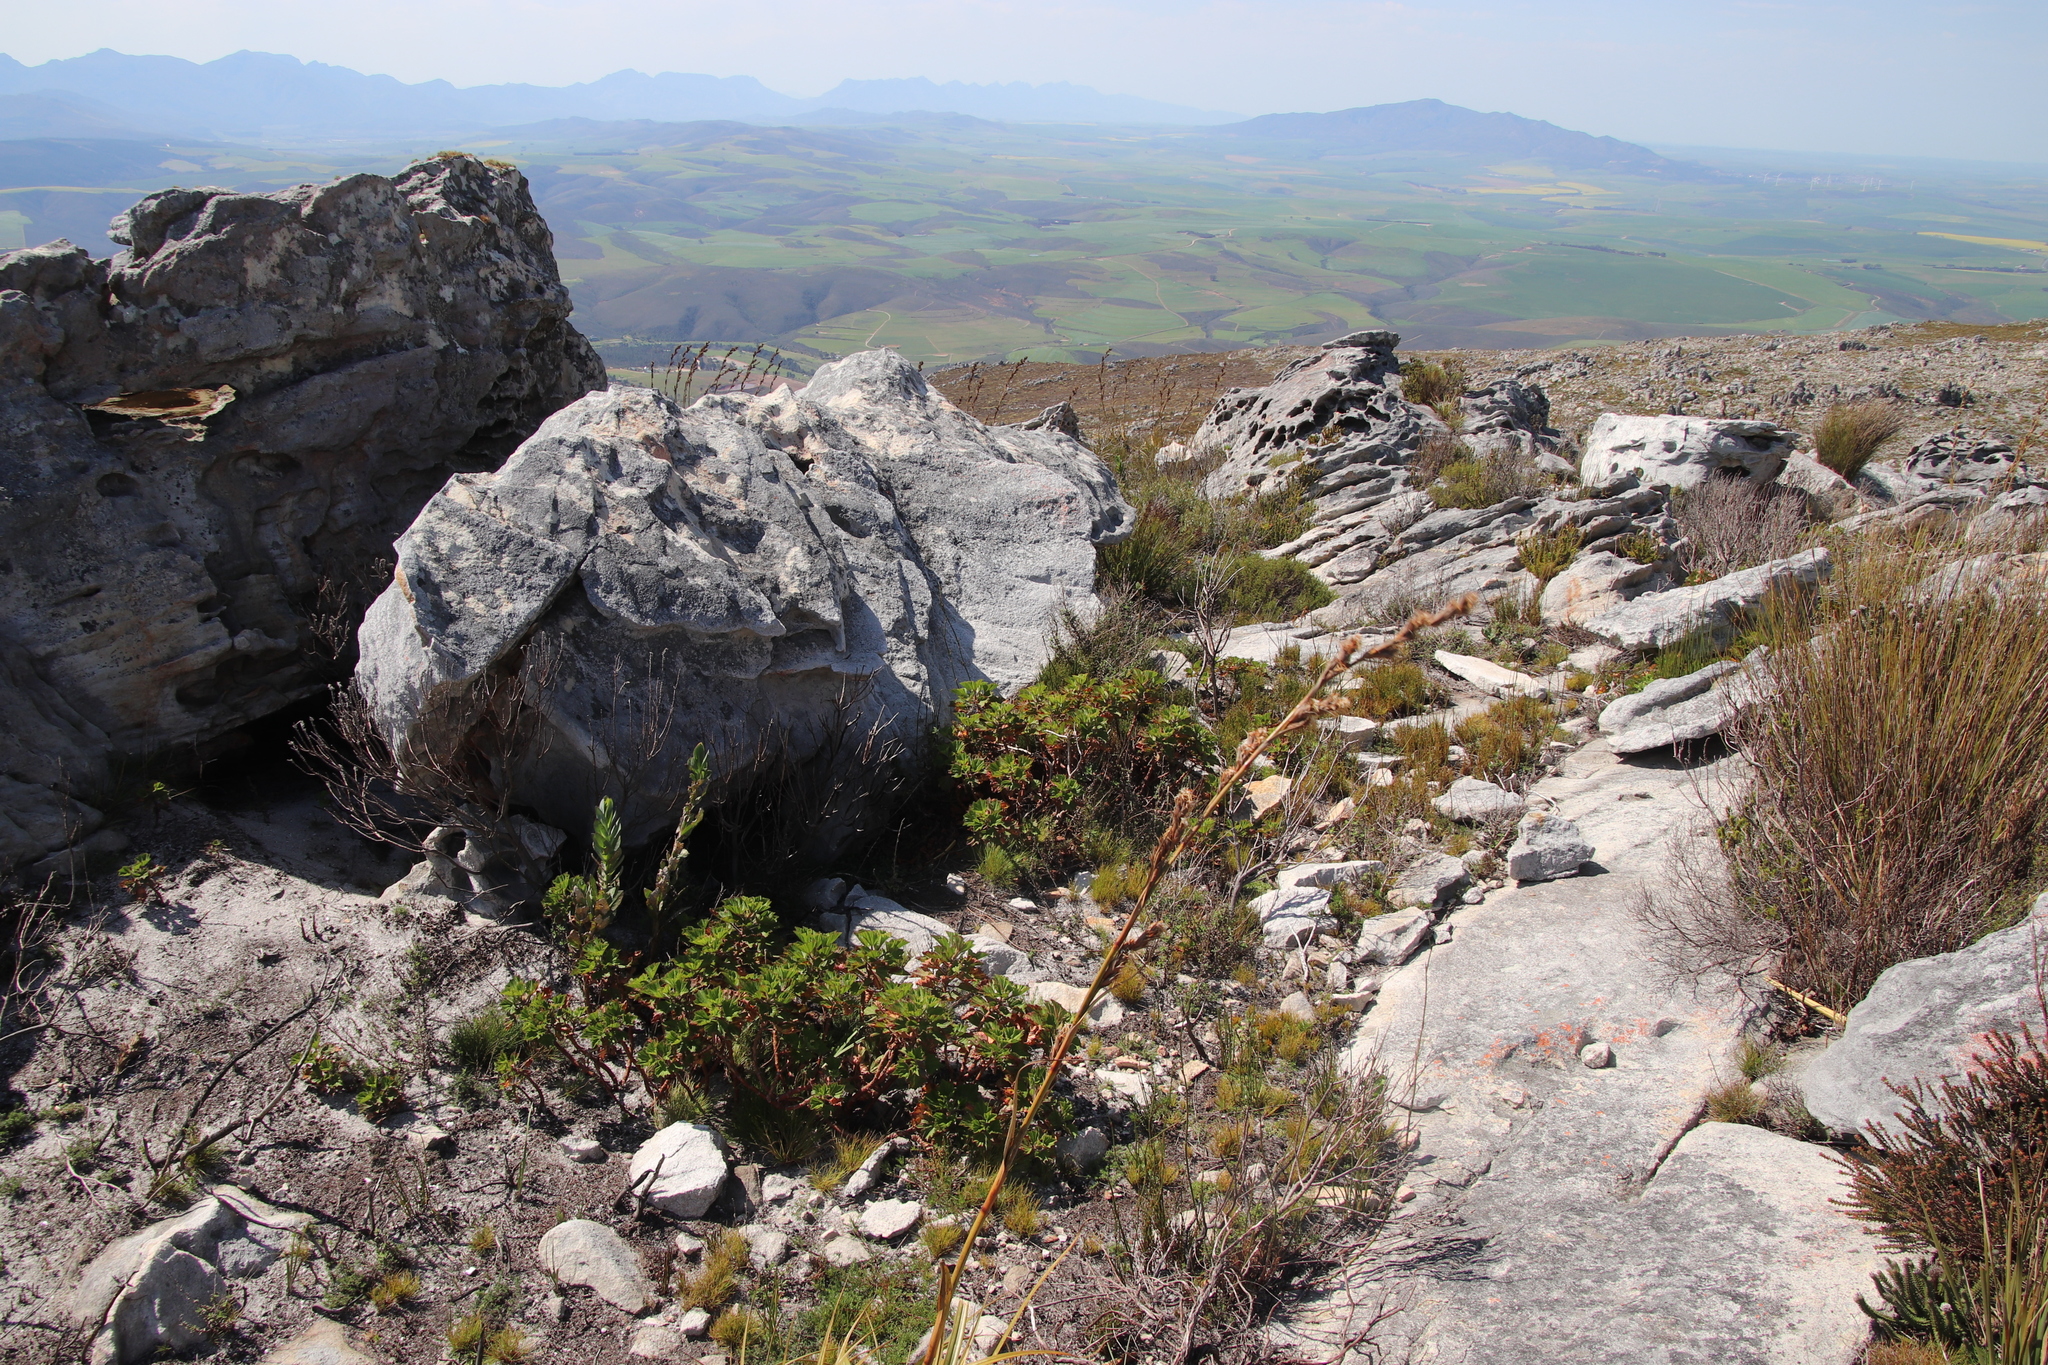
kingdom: Plantae
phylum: Tracheophyta
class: Magnoliopsida
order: Geraniales
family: Geraniaceae
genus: Pelargonium
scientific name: Pelargonium cucullatum
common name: Tree pelargonium
